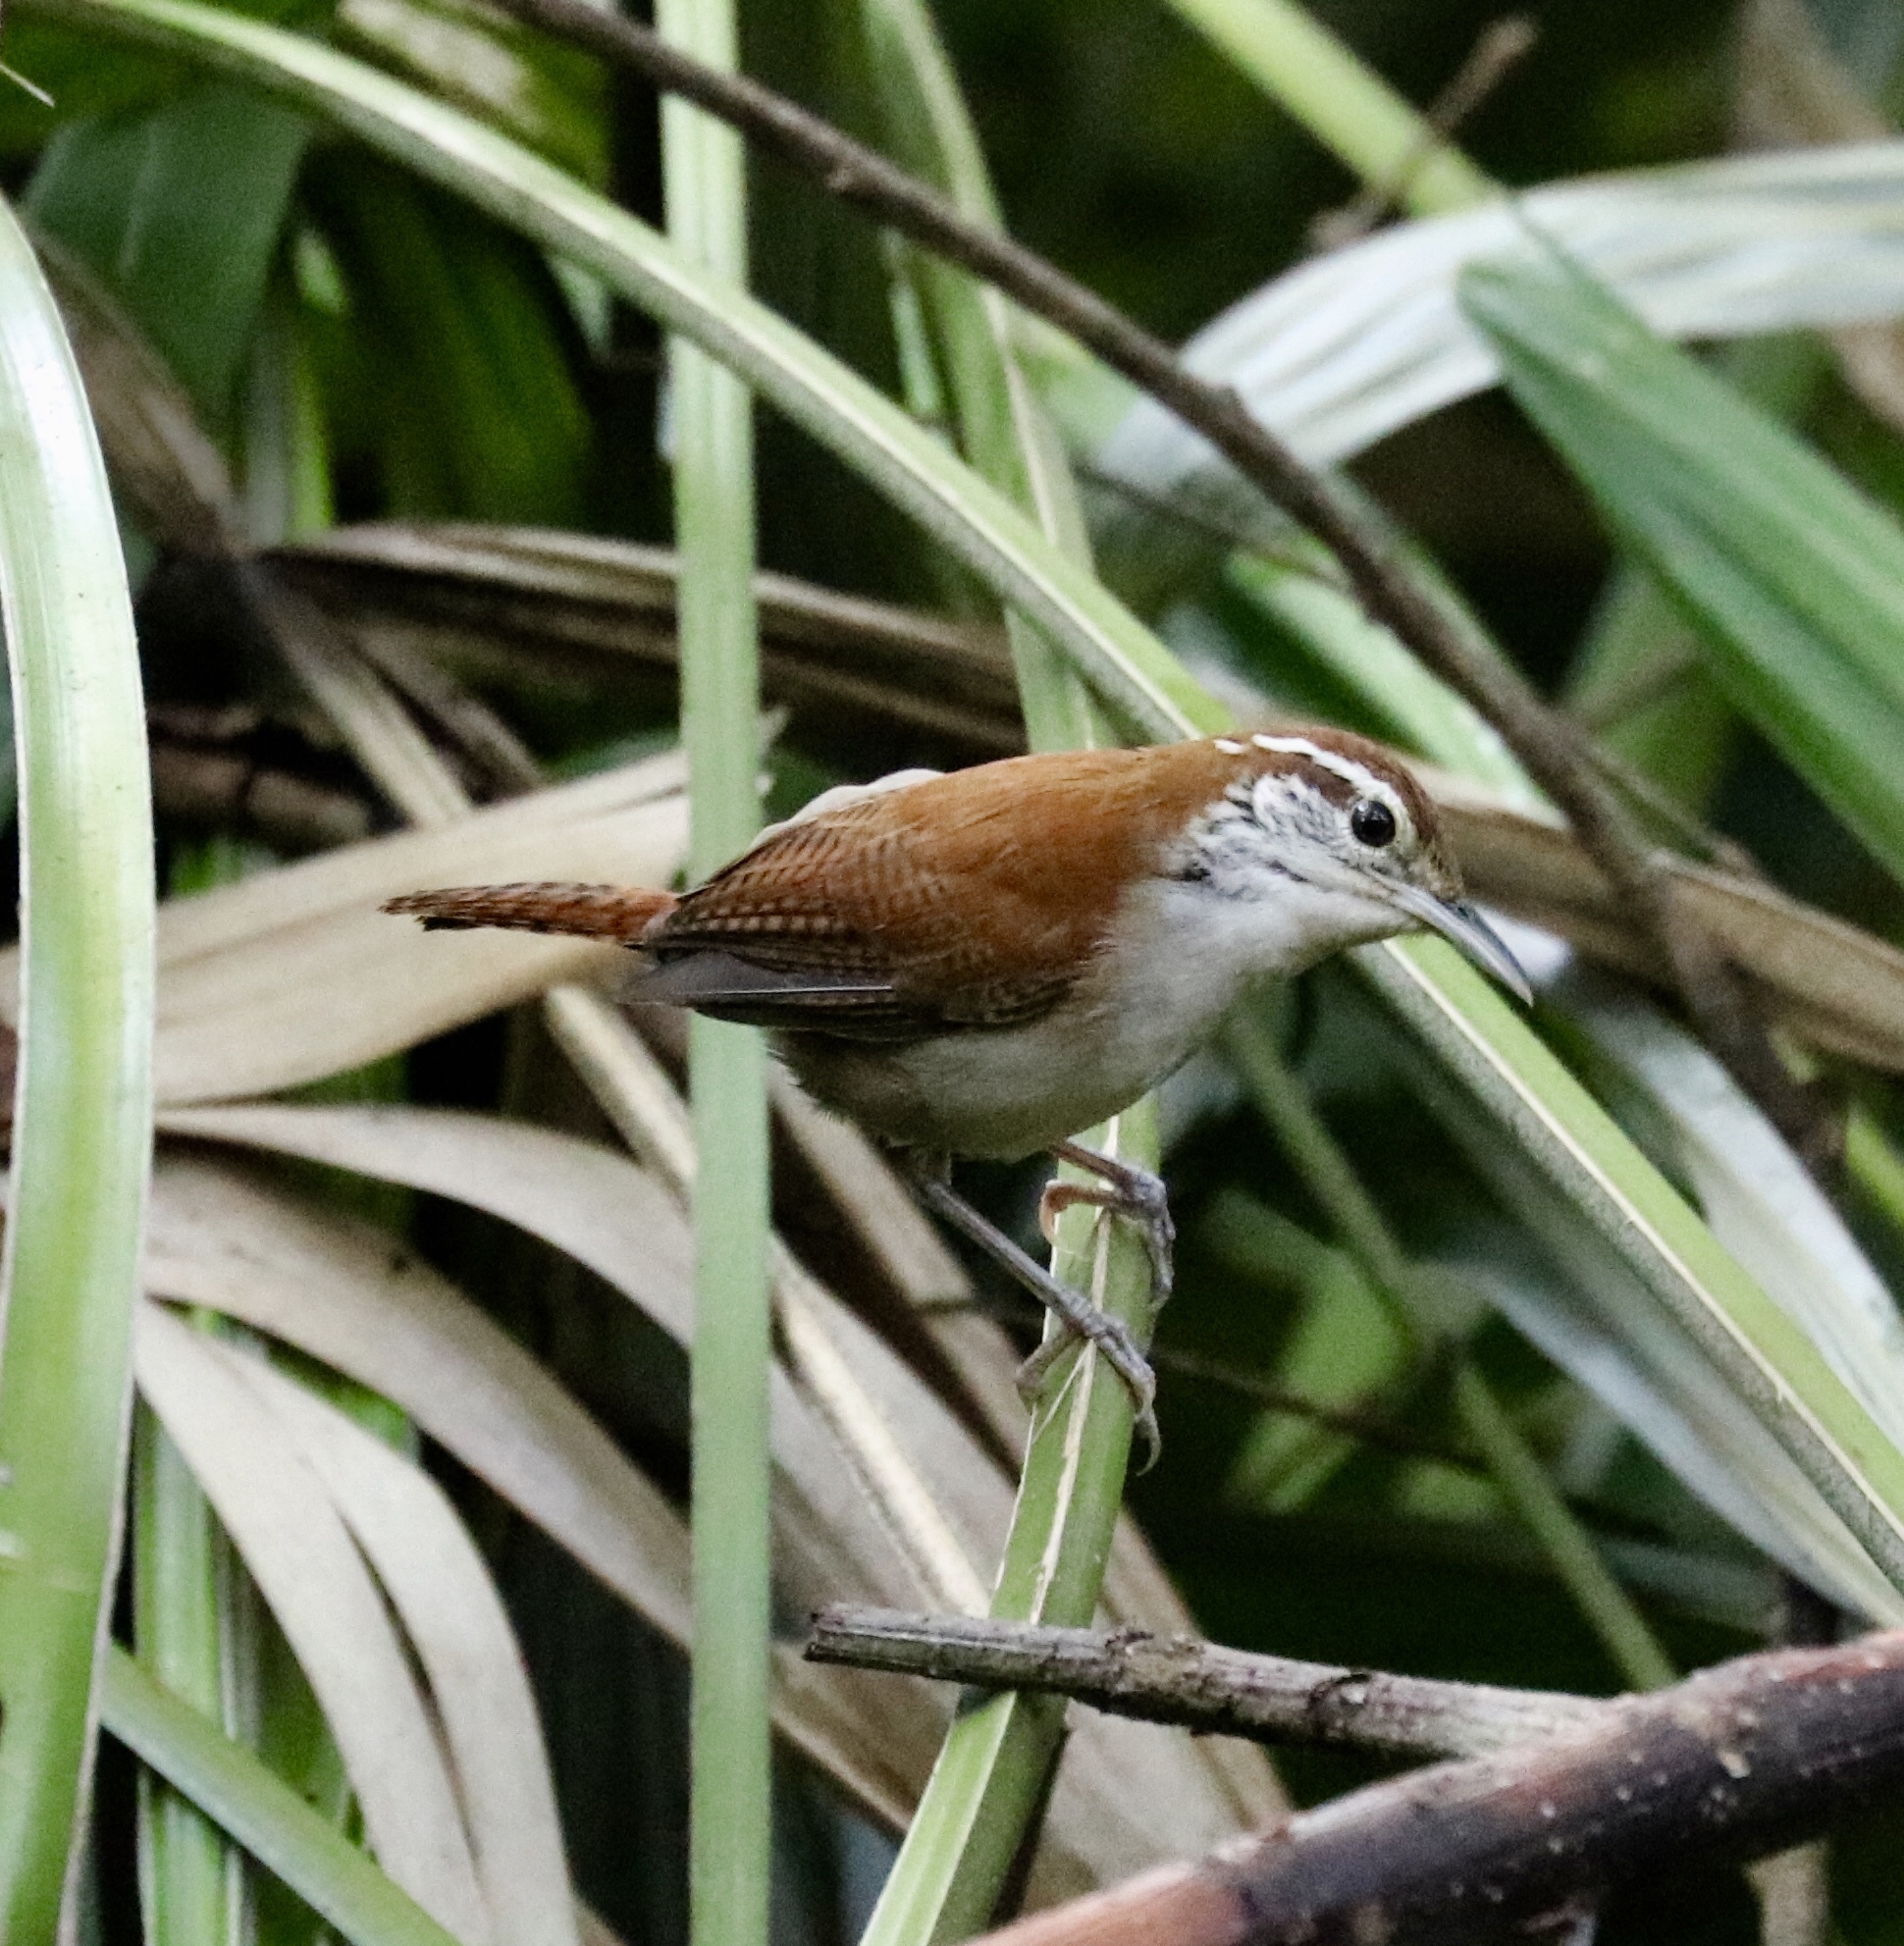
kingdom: Animalia
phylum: Chordata
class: Aves
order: Passeriformes
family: Troglodytidae
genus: Thryophilus
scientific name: Thryophilus rufalbus
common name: Rufous-and-white wren
